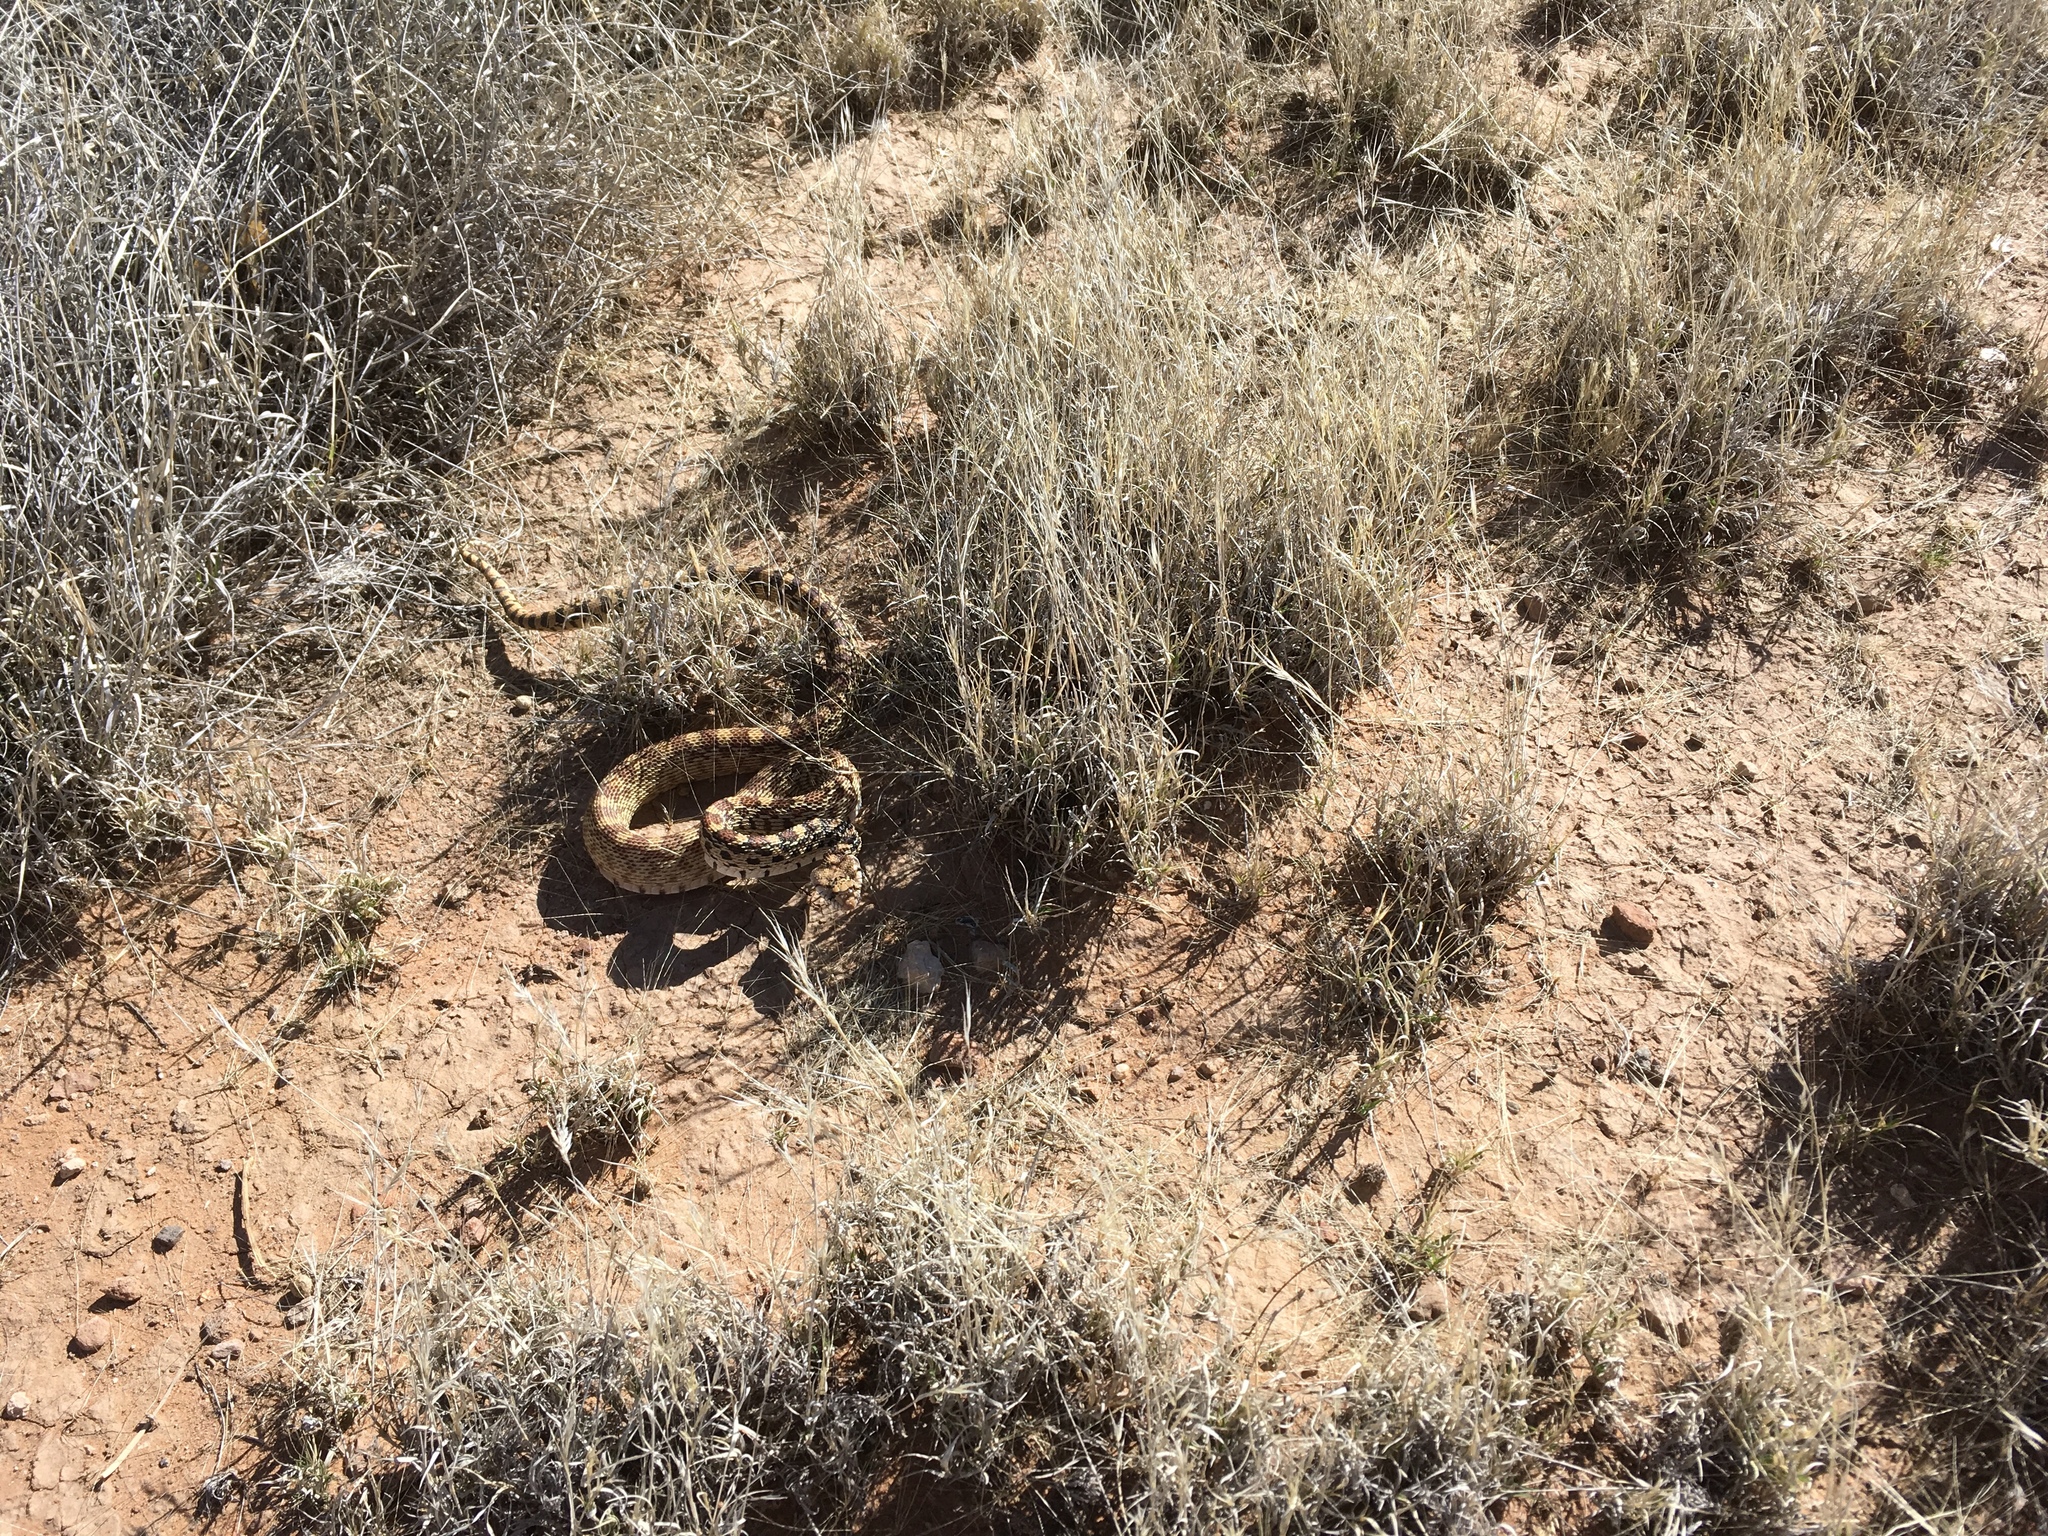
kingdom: Animalia
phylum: Chordata
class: Squamata
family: Colubridae
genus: Pituophis
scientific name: Pituophis catenifer
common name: Gopher snake
